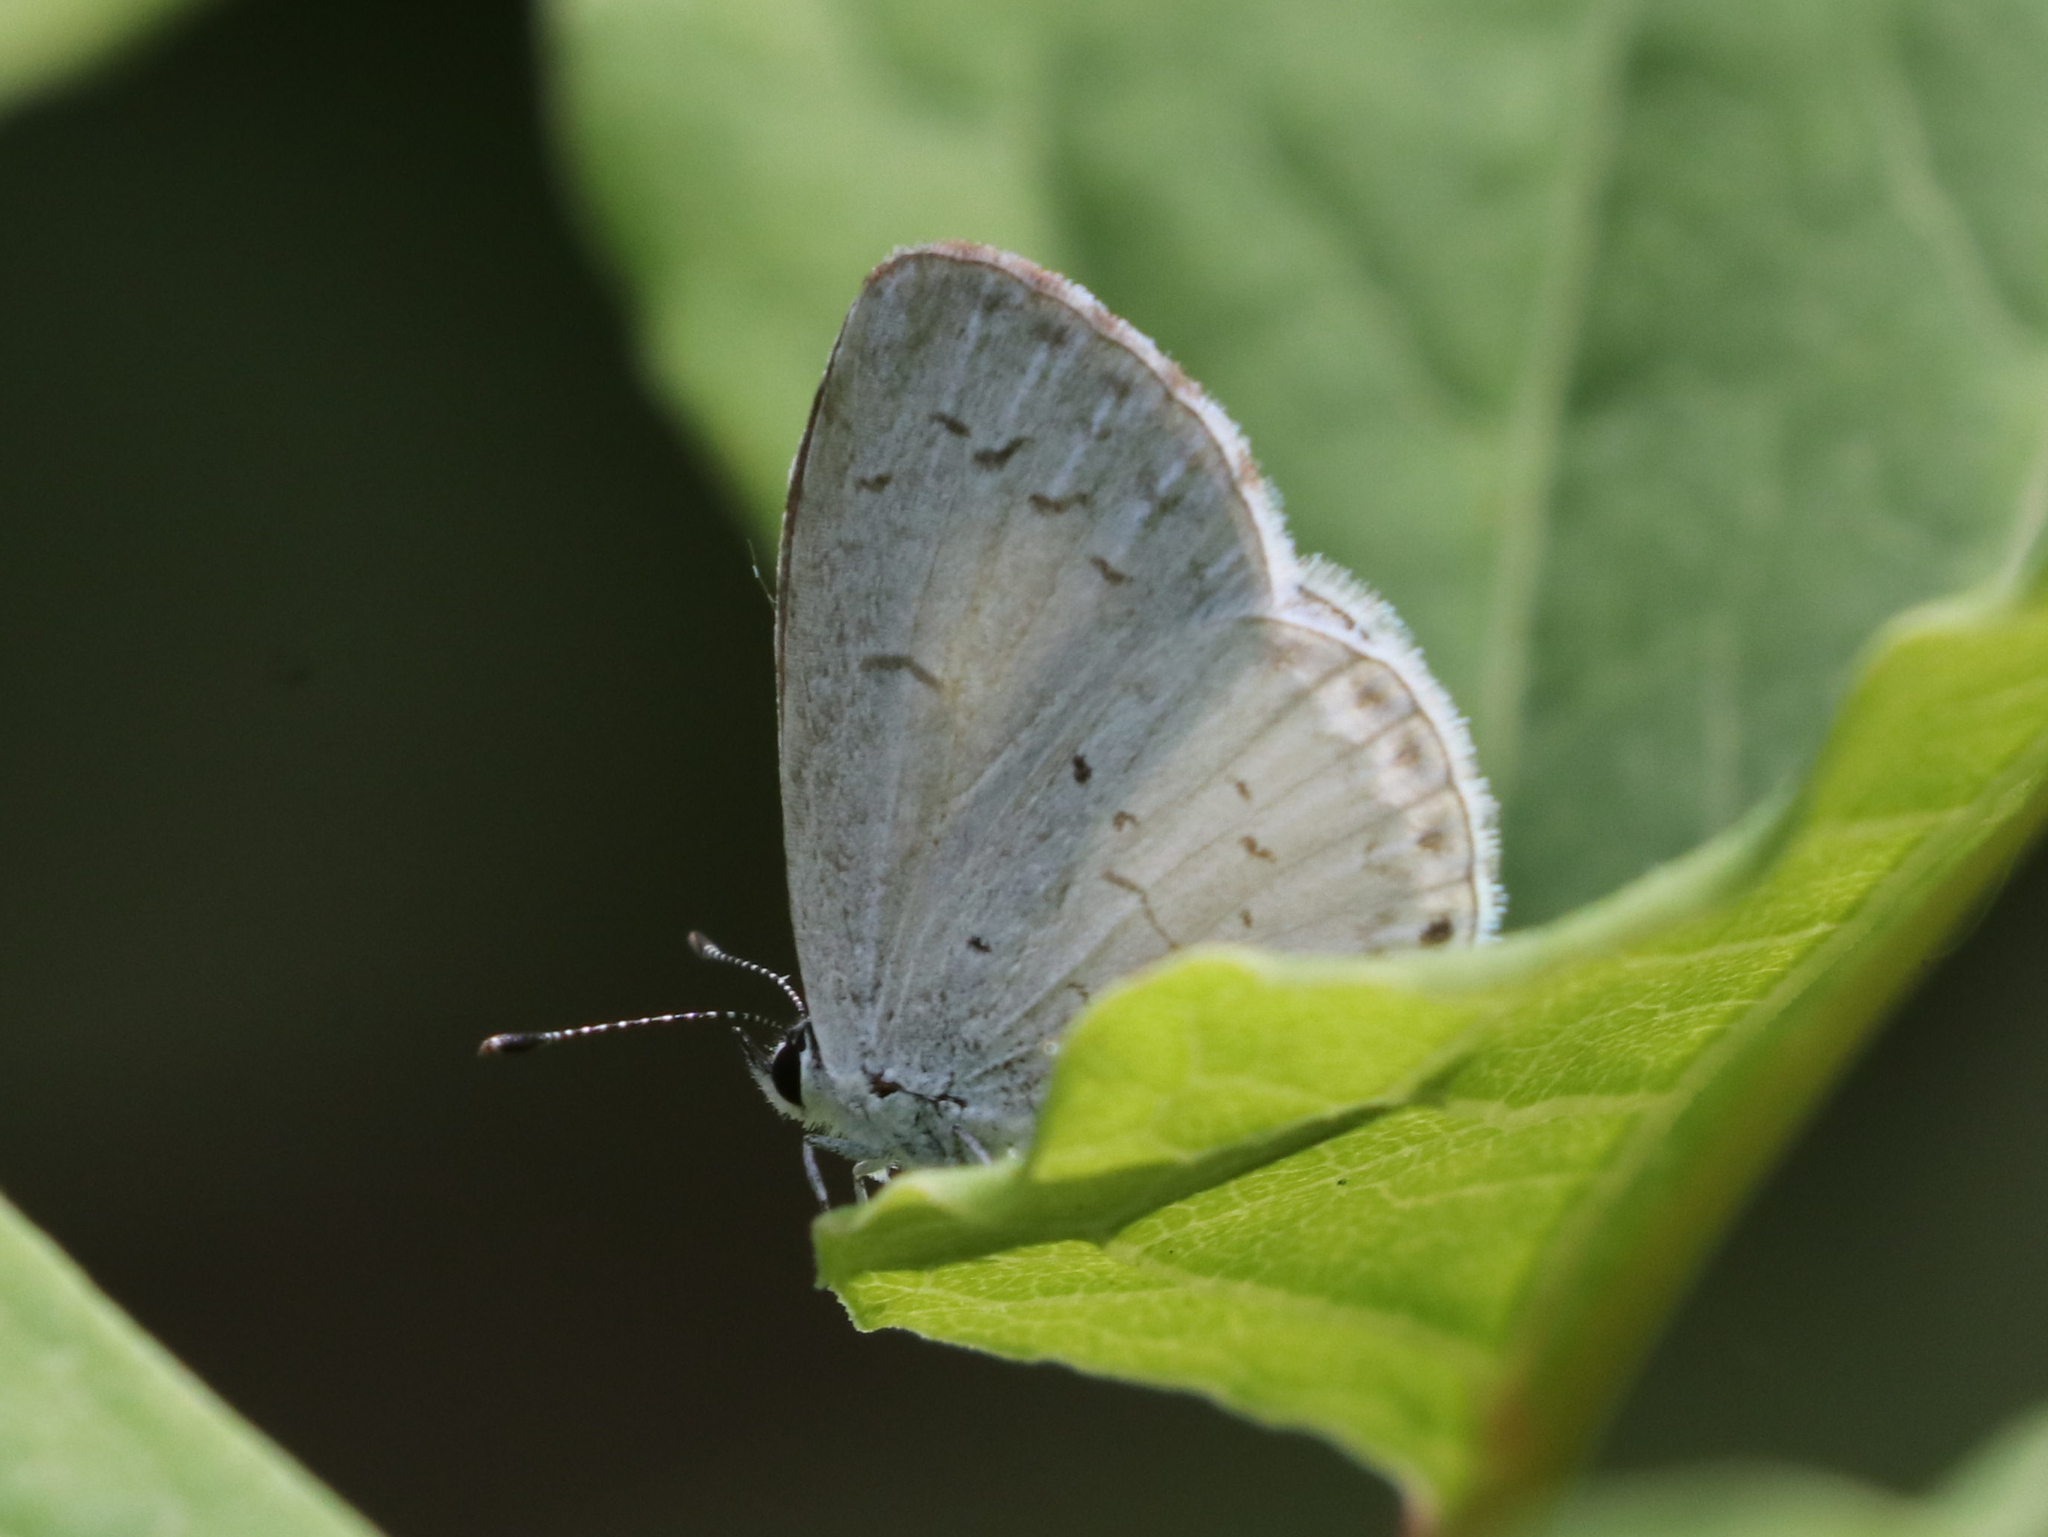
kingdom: Animalia
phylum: Arthropoda
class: Insecta
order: Lepidoptera
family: Lycaenidae
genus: Cyaniris
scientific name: Cyaniris neglecta
